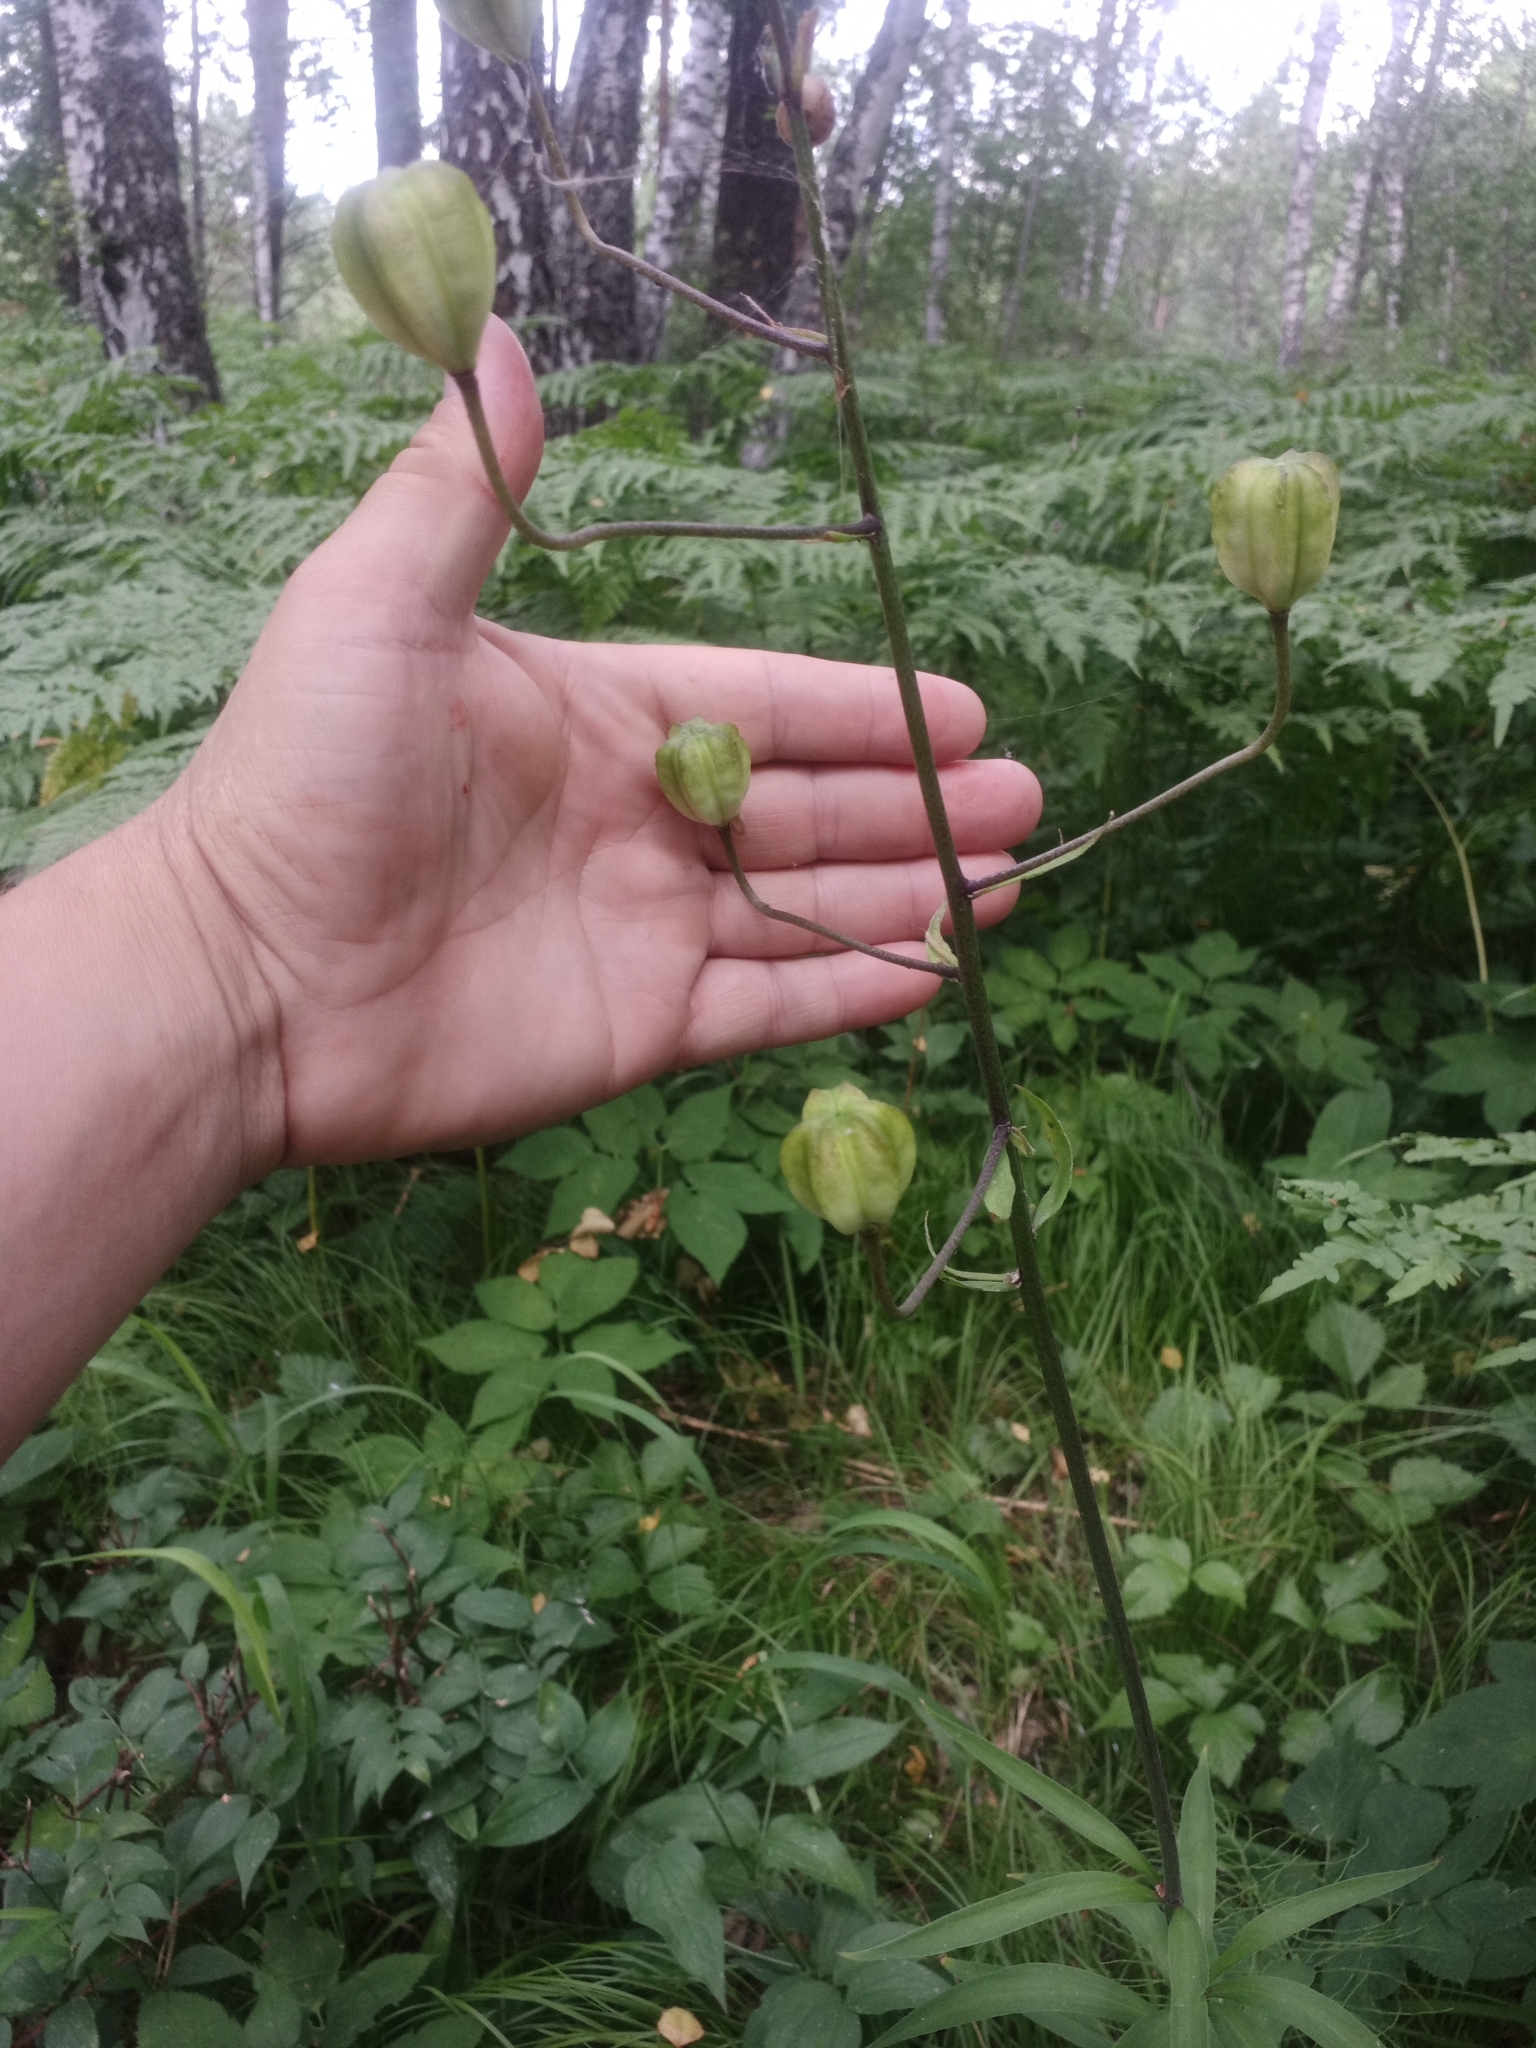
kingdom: Plantae
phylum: Tracheophyta
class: Liliopsida
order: Liliales
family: Liliaceae
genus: Lilium
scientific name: Lilium martagon
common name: Martagon lily
